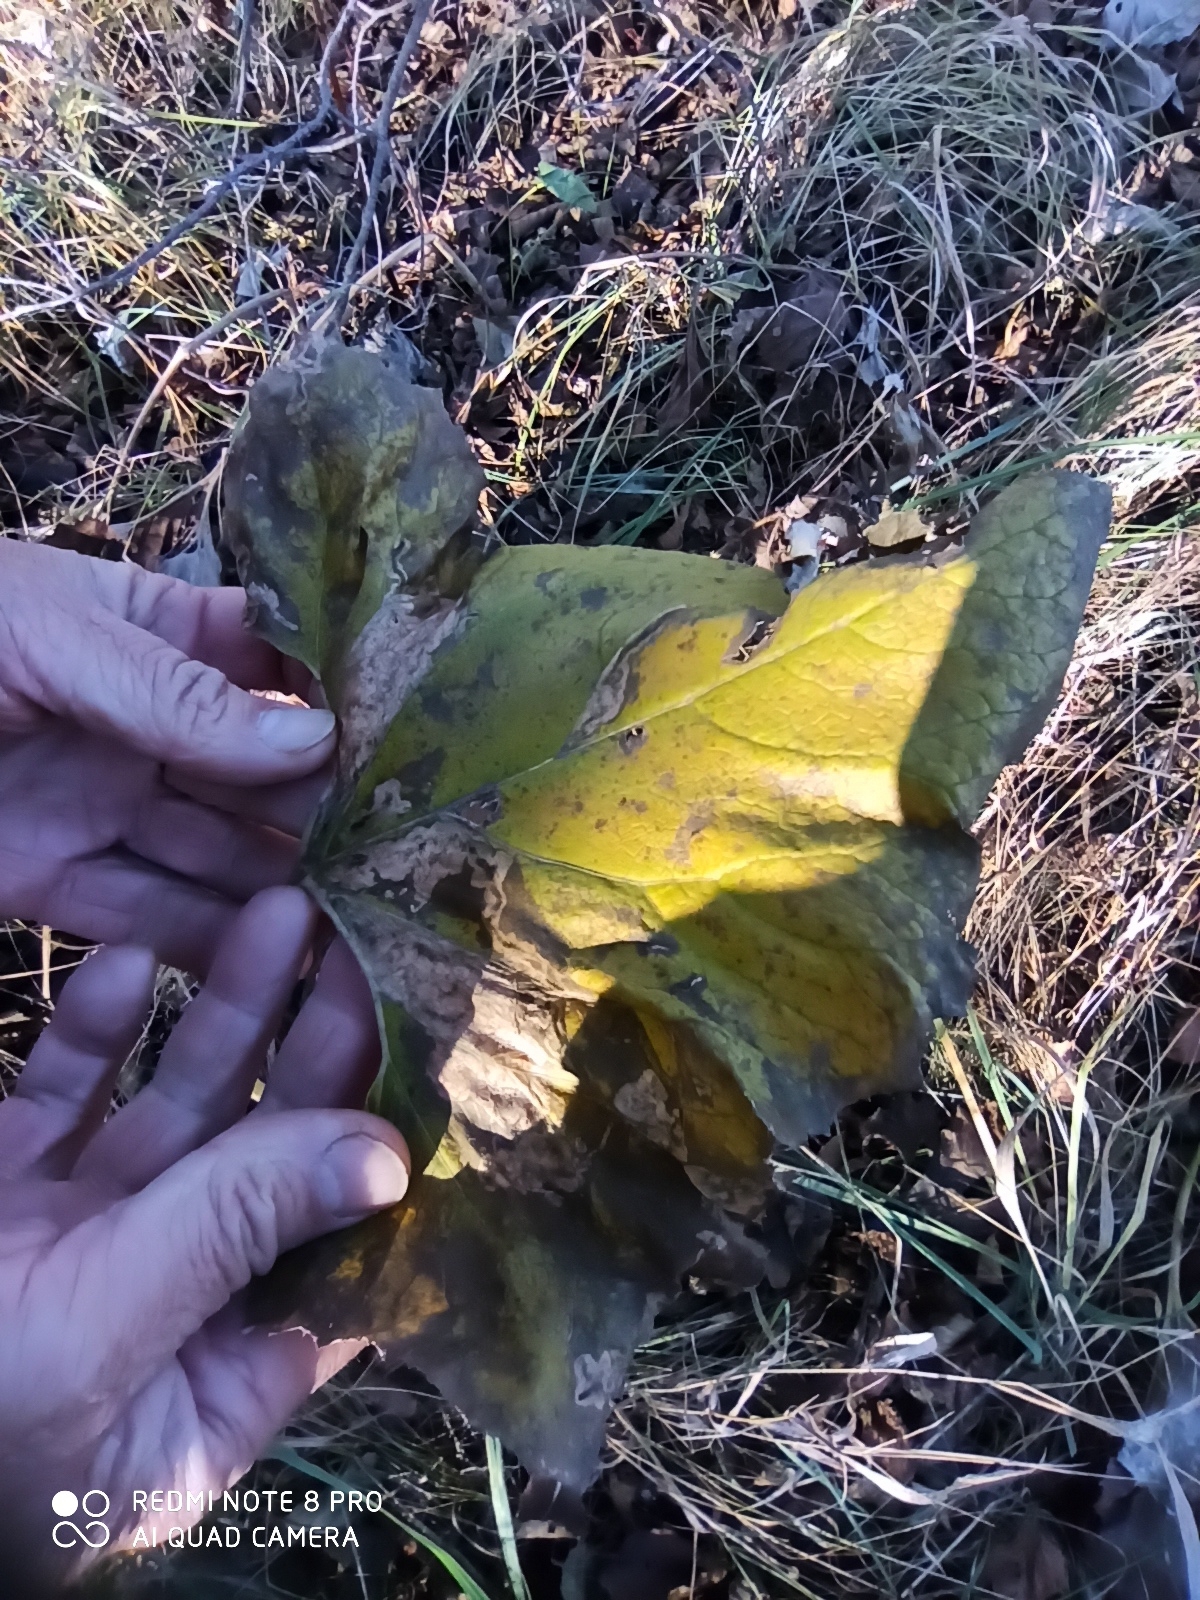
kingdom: Plantae
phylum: Tracheophyta
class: Magnoliopsida
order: Asterales
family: Asteraceae
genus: Petasites
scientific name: Petasites spurius
